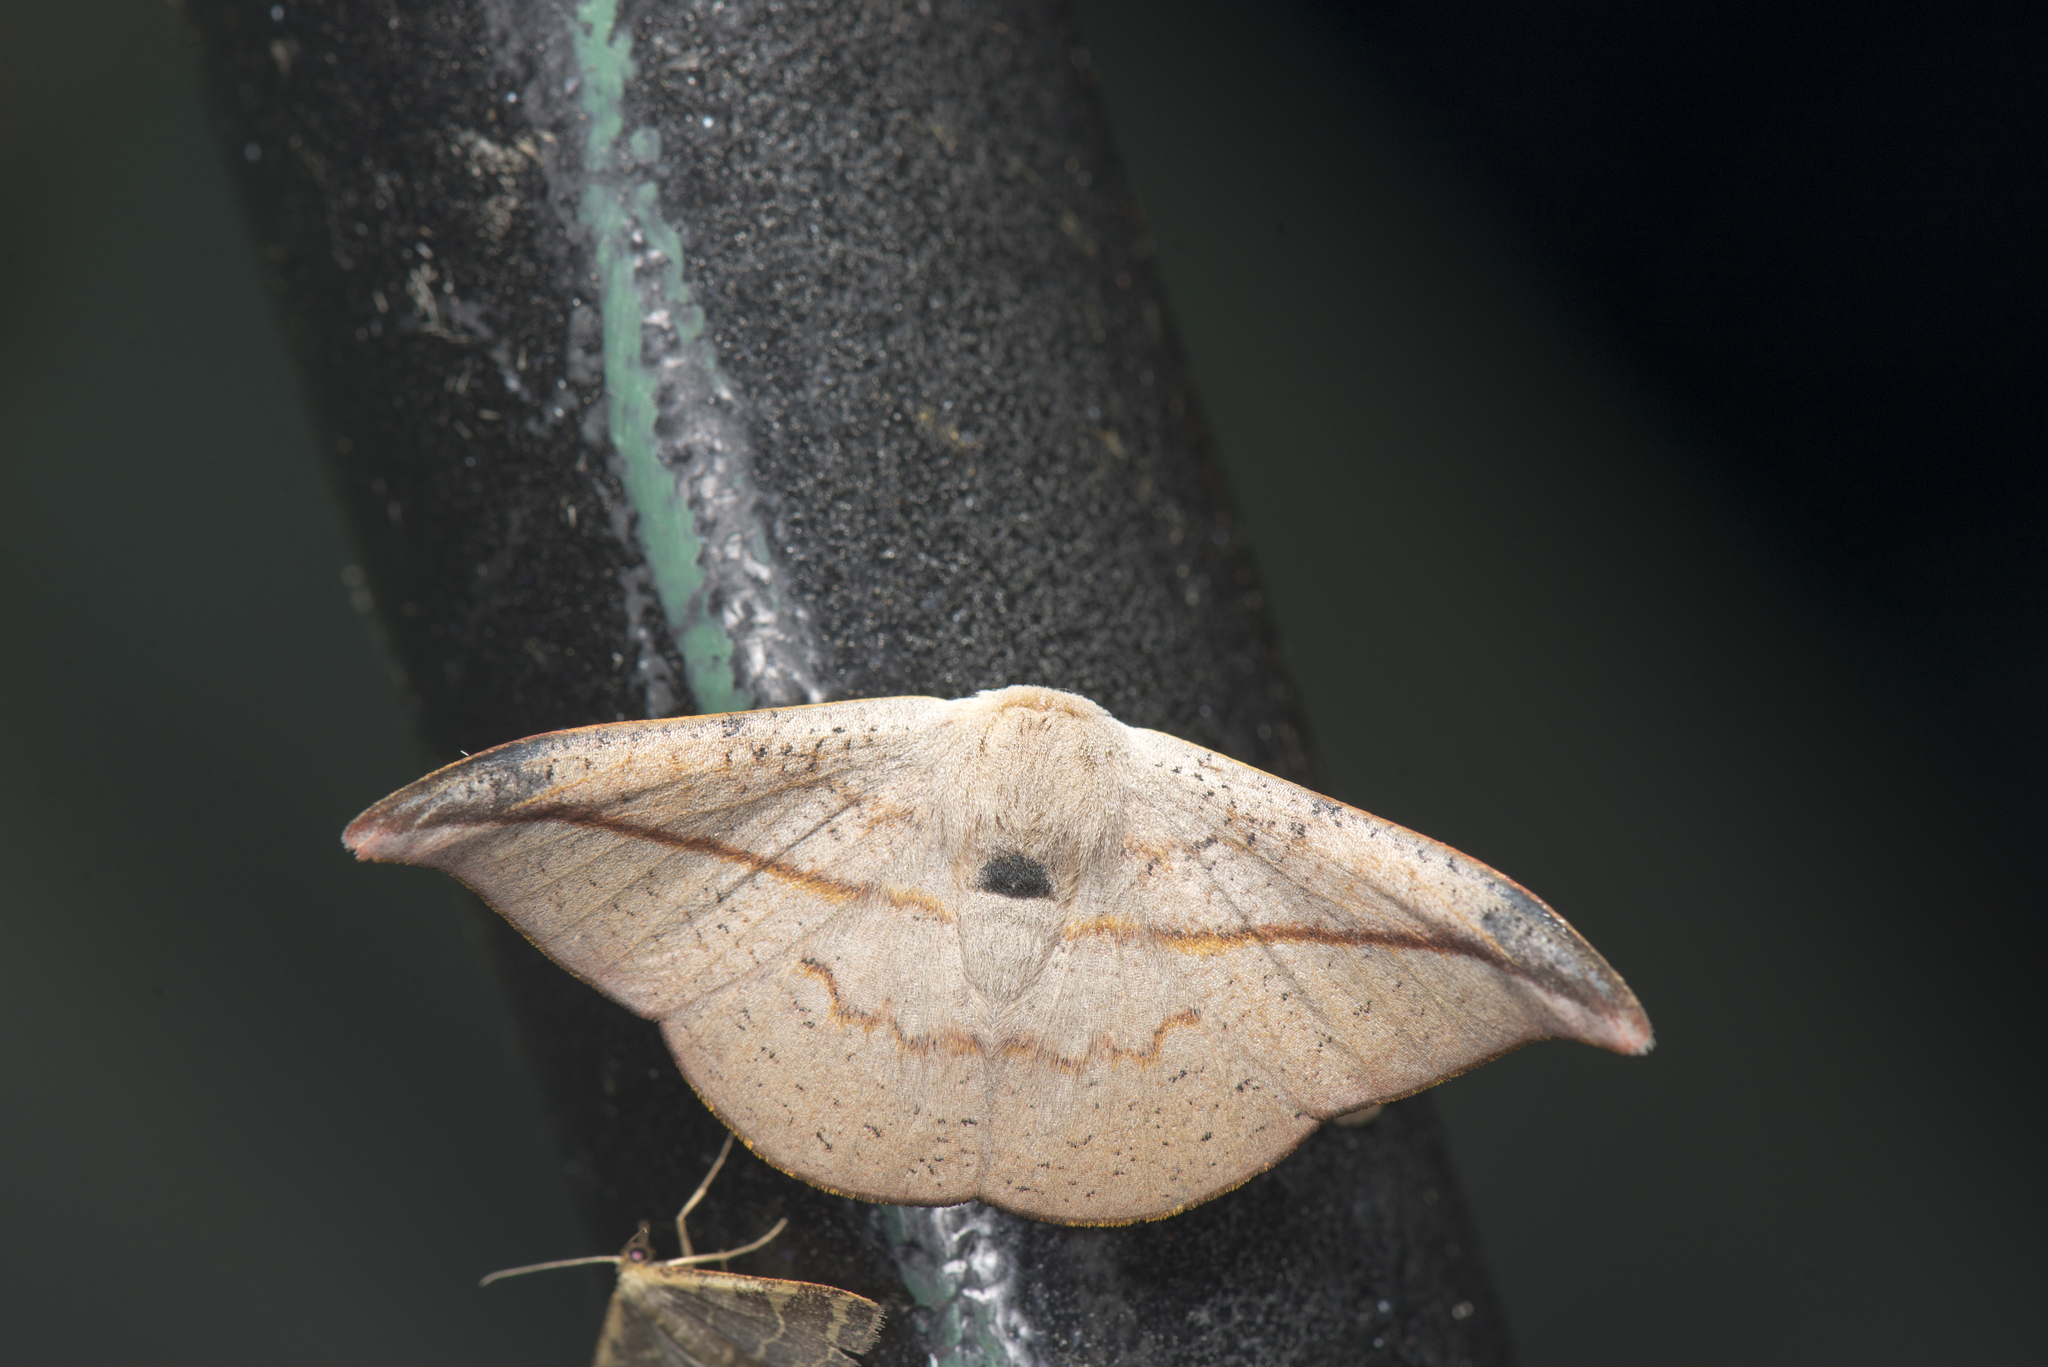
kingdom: Animalia
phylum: Arthropoda
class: Insecta
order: Lepidoptera
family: Drepanidae
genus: Oreta
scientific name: Oreta insignis
